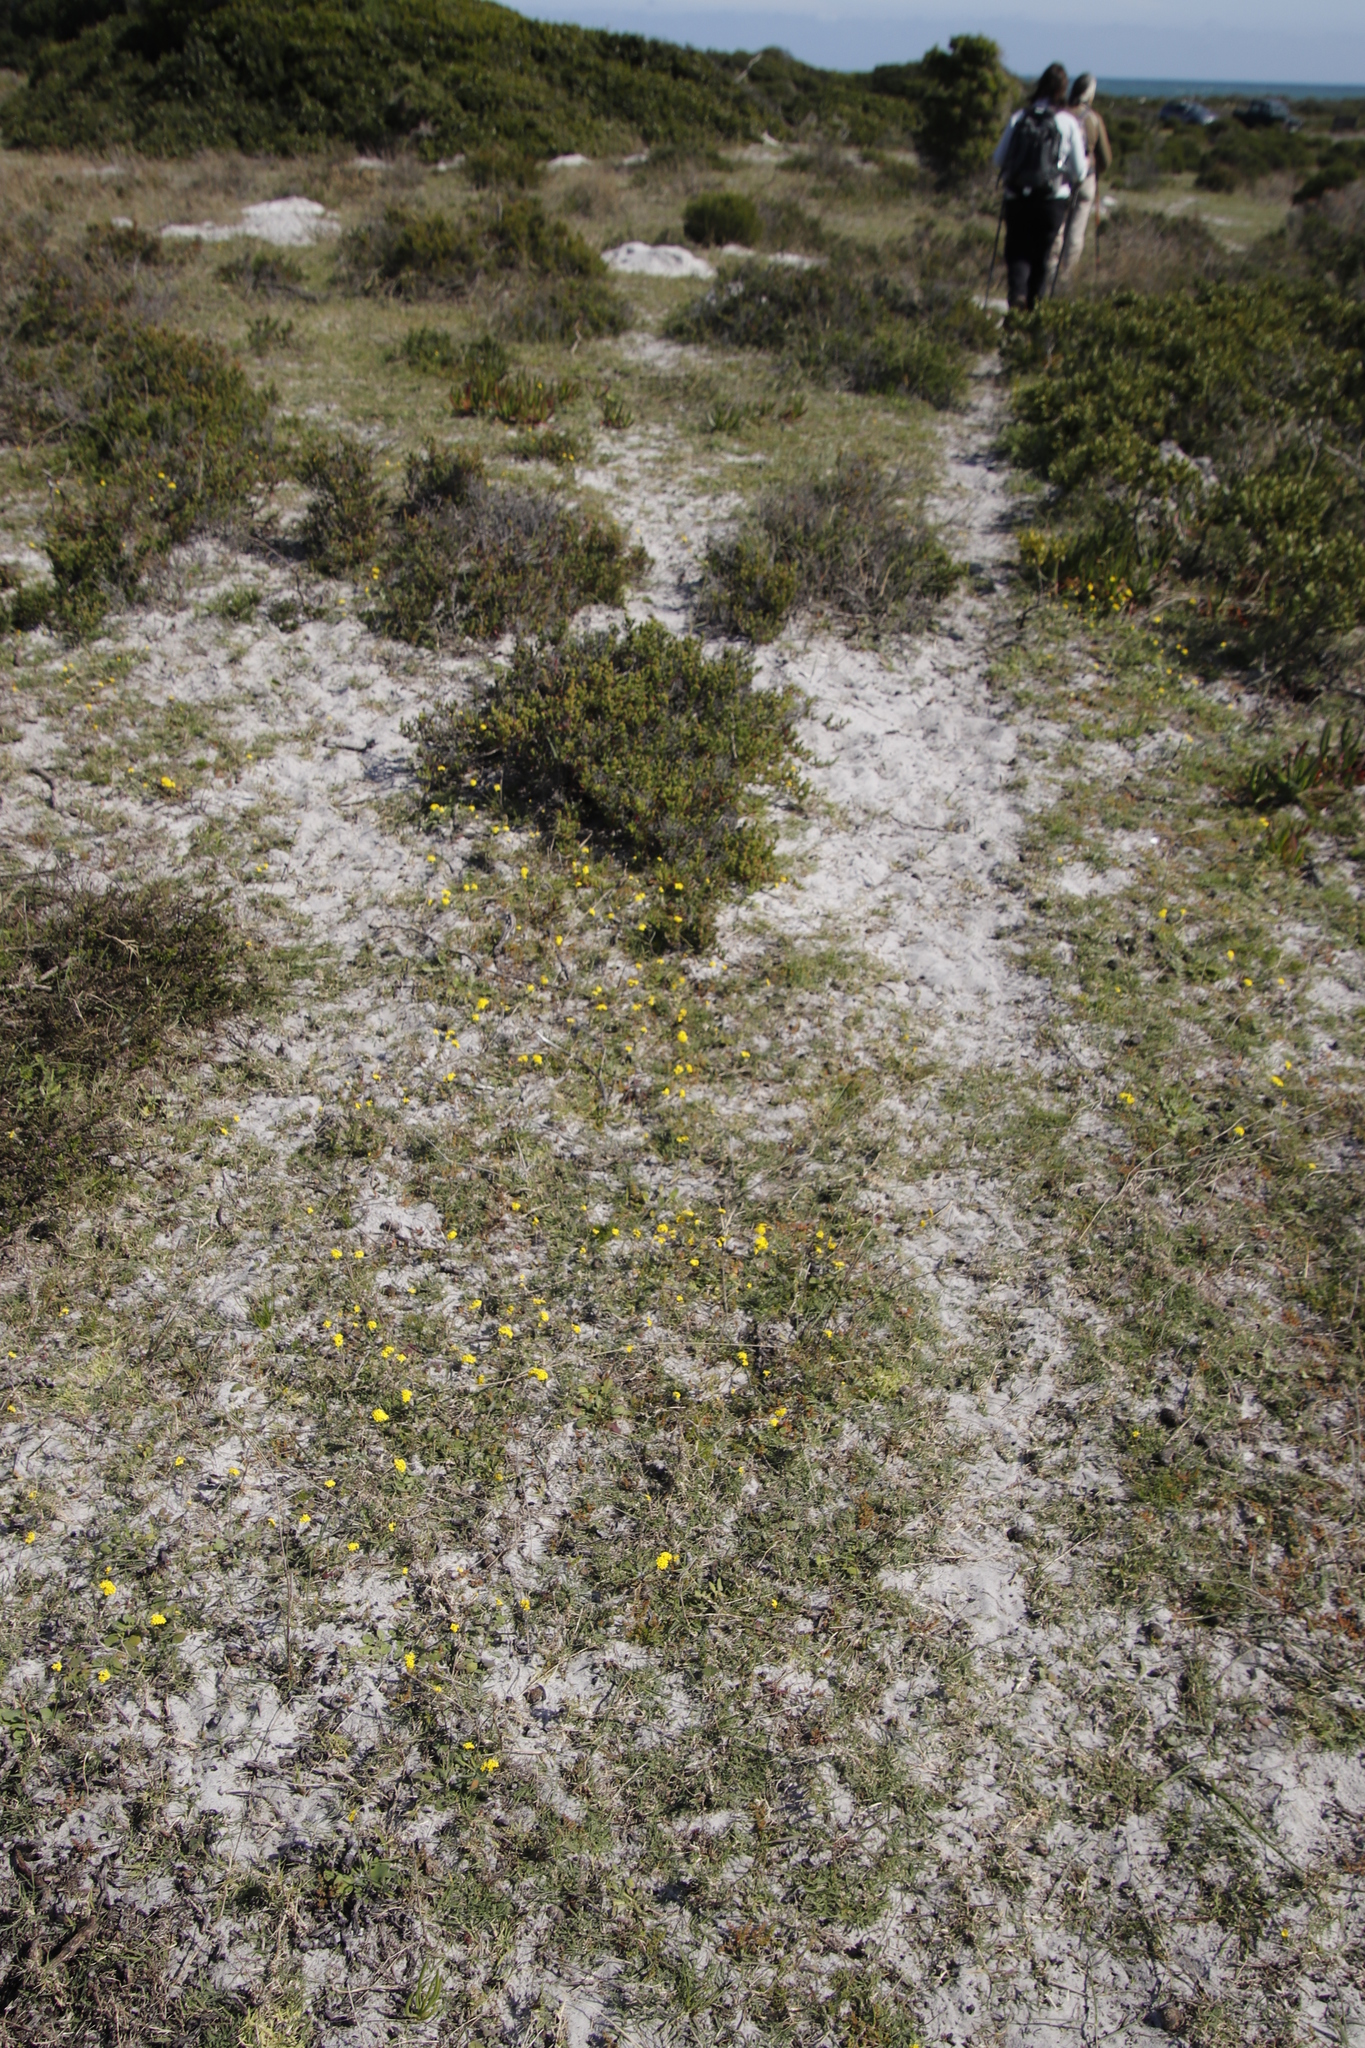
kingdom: Plantae
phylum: Tracheophyta
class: Magnoliopsida
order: Asterales
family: Asteraceae
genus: Gymnodiscus
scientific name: Gymnodiscus capillaris
